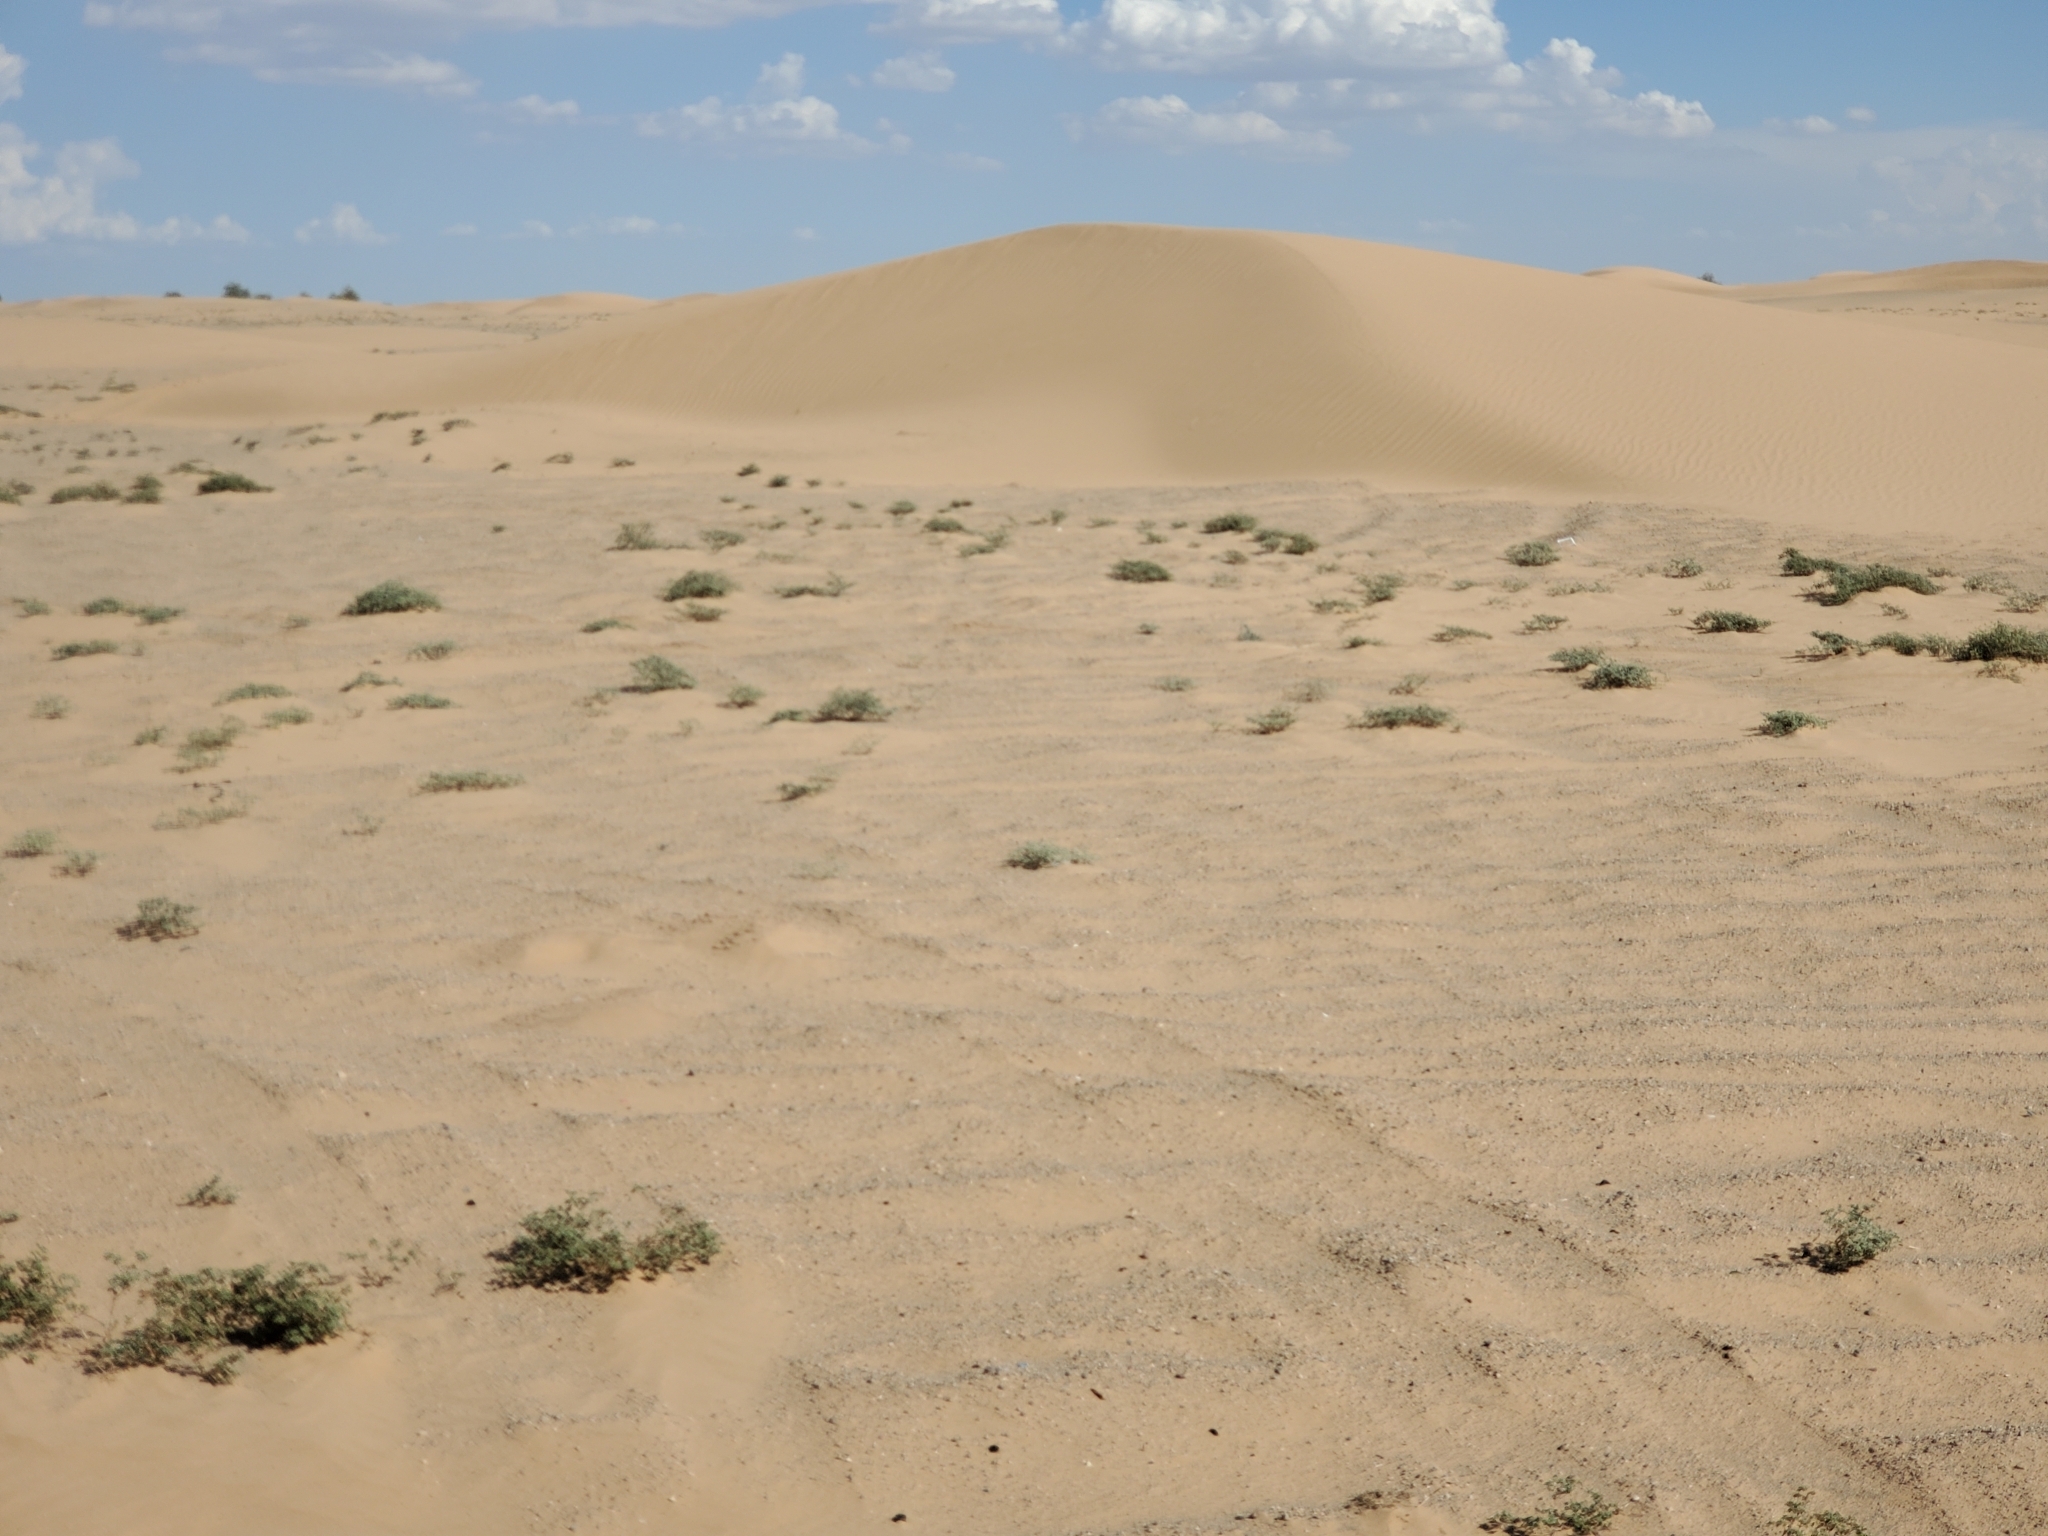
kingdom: Plantae
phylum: Tracheophyta
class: Magnoliopsida
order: Boraginales
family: Ehretiaceae
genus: Tiquilia
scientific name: Tiquilia plicata
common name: Fan-leaf tiquilia
